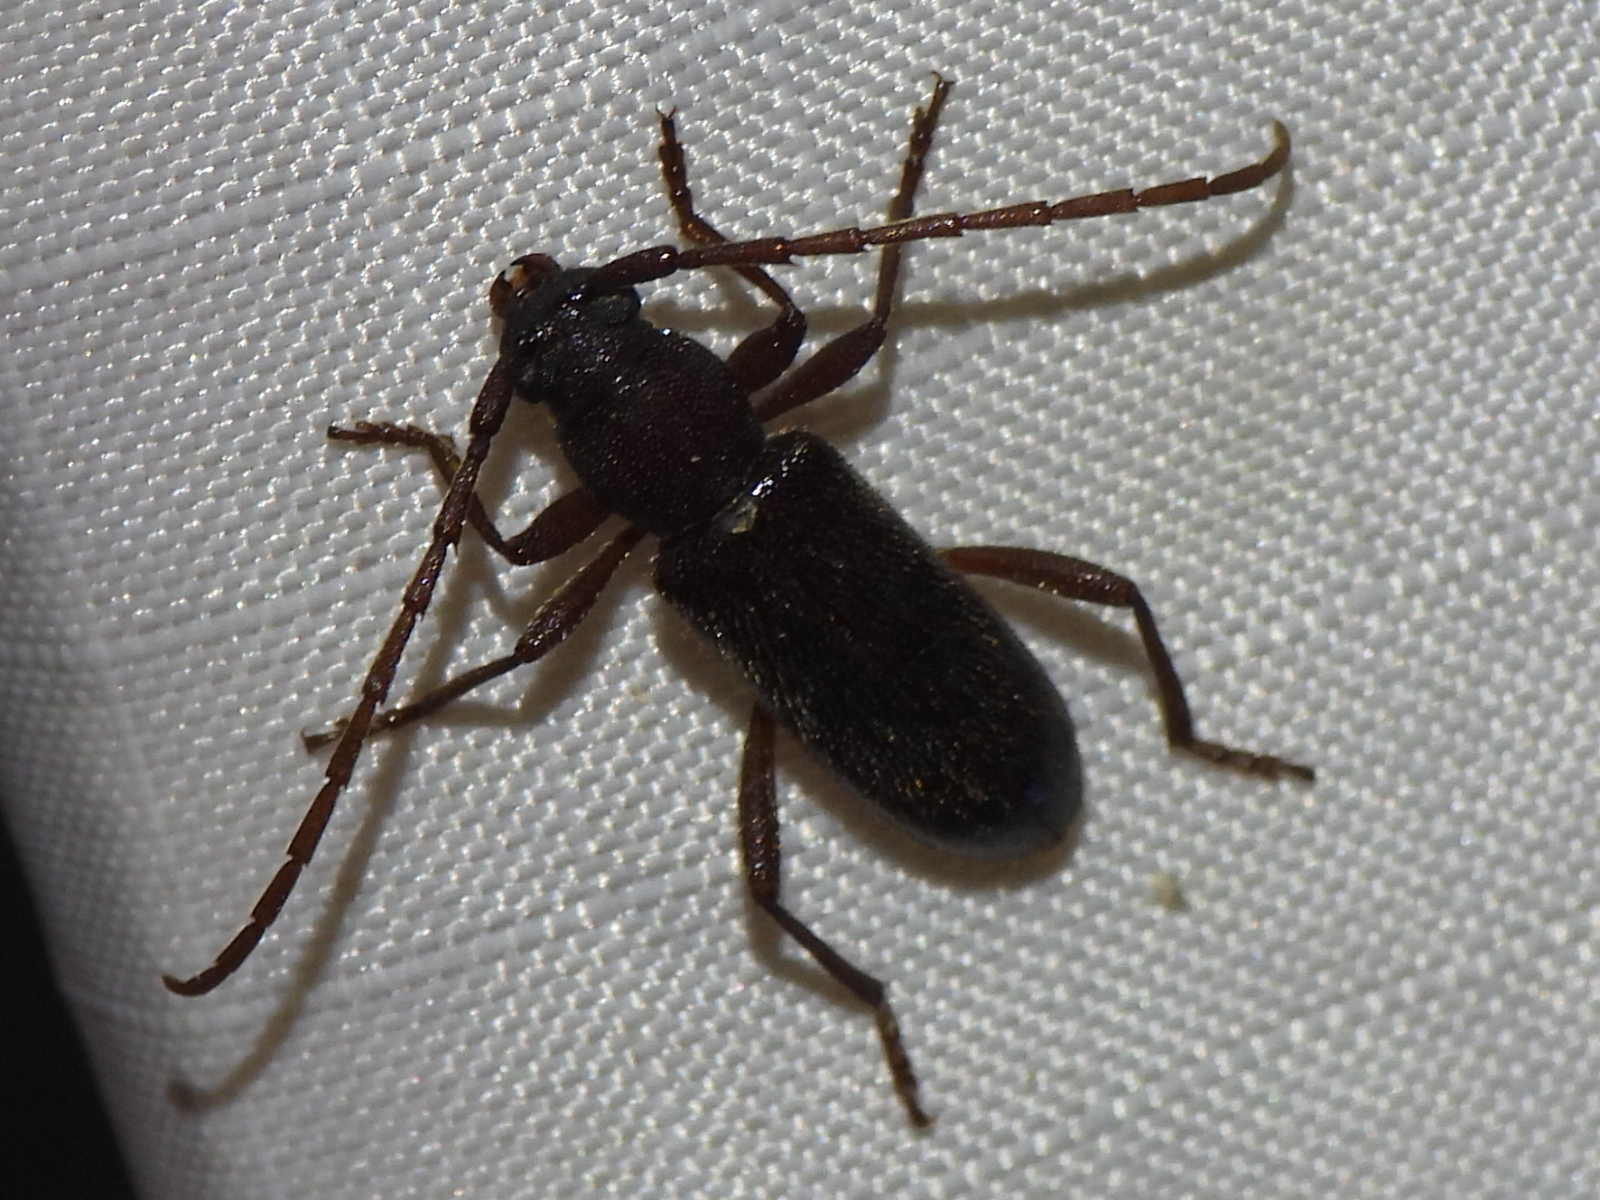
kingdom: Animalia
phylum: Arthropoda
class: Insecta
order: Coleoptera
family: Cerambycidae
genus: Anelaphus
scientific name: Anelaphus moestus
